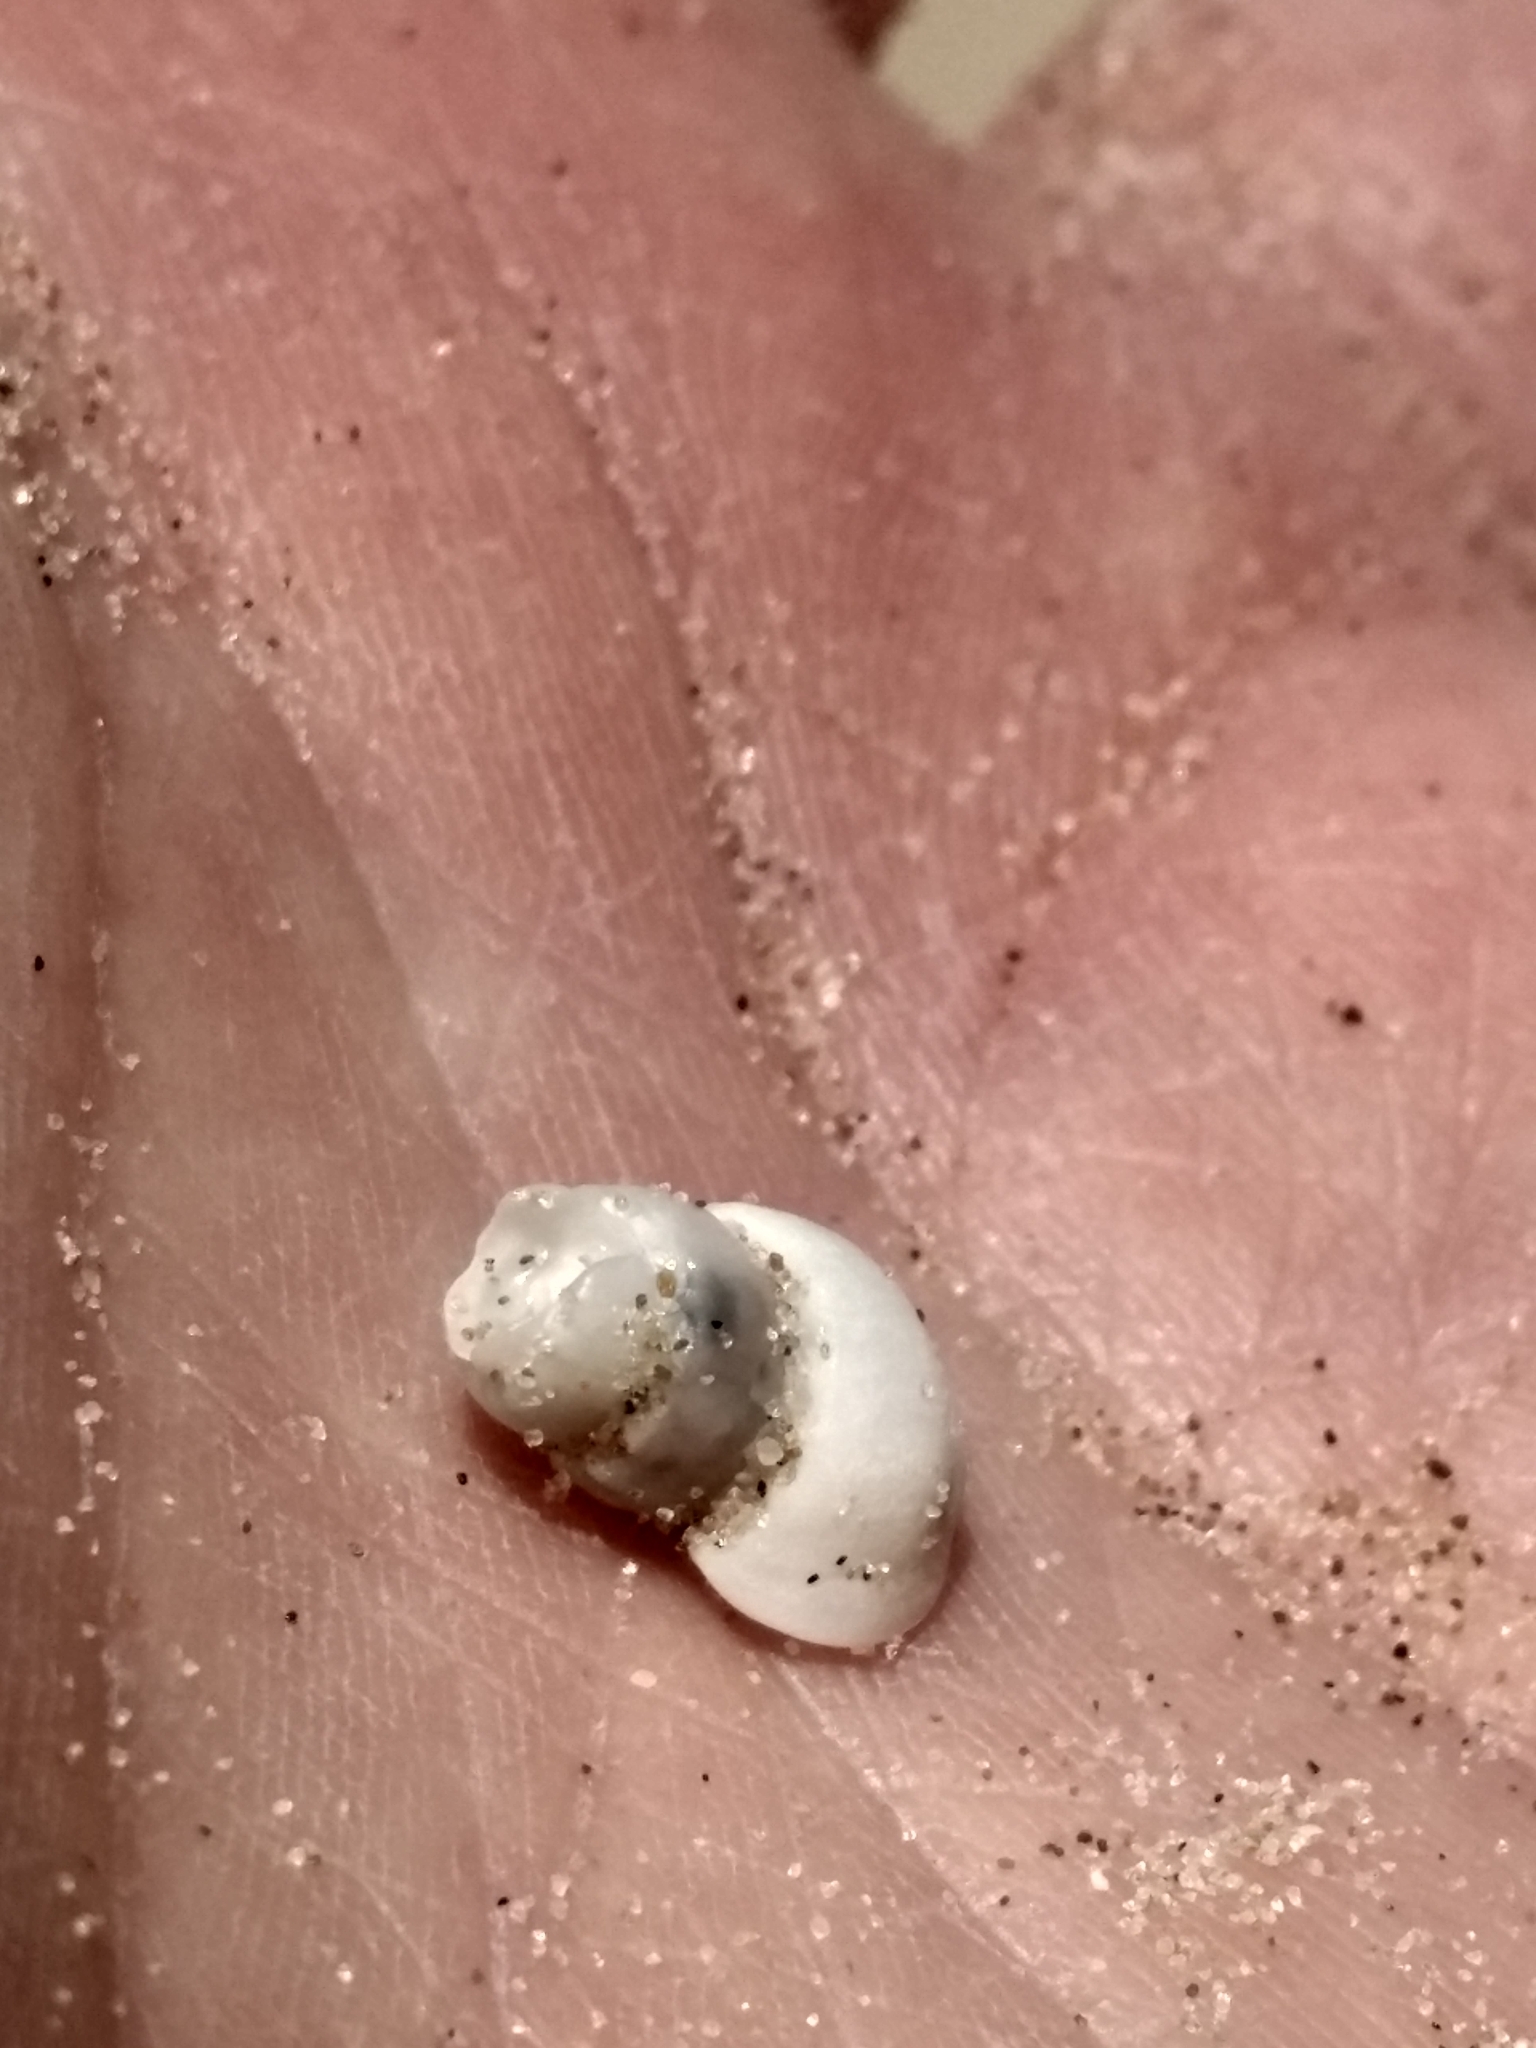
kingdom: Animalia
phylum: Mollusca
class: Gastropoda
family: Epitoniidae
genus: Opalia
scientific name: Opalia funiculata
